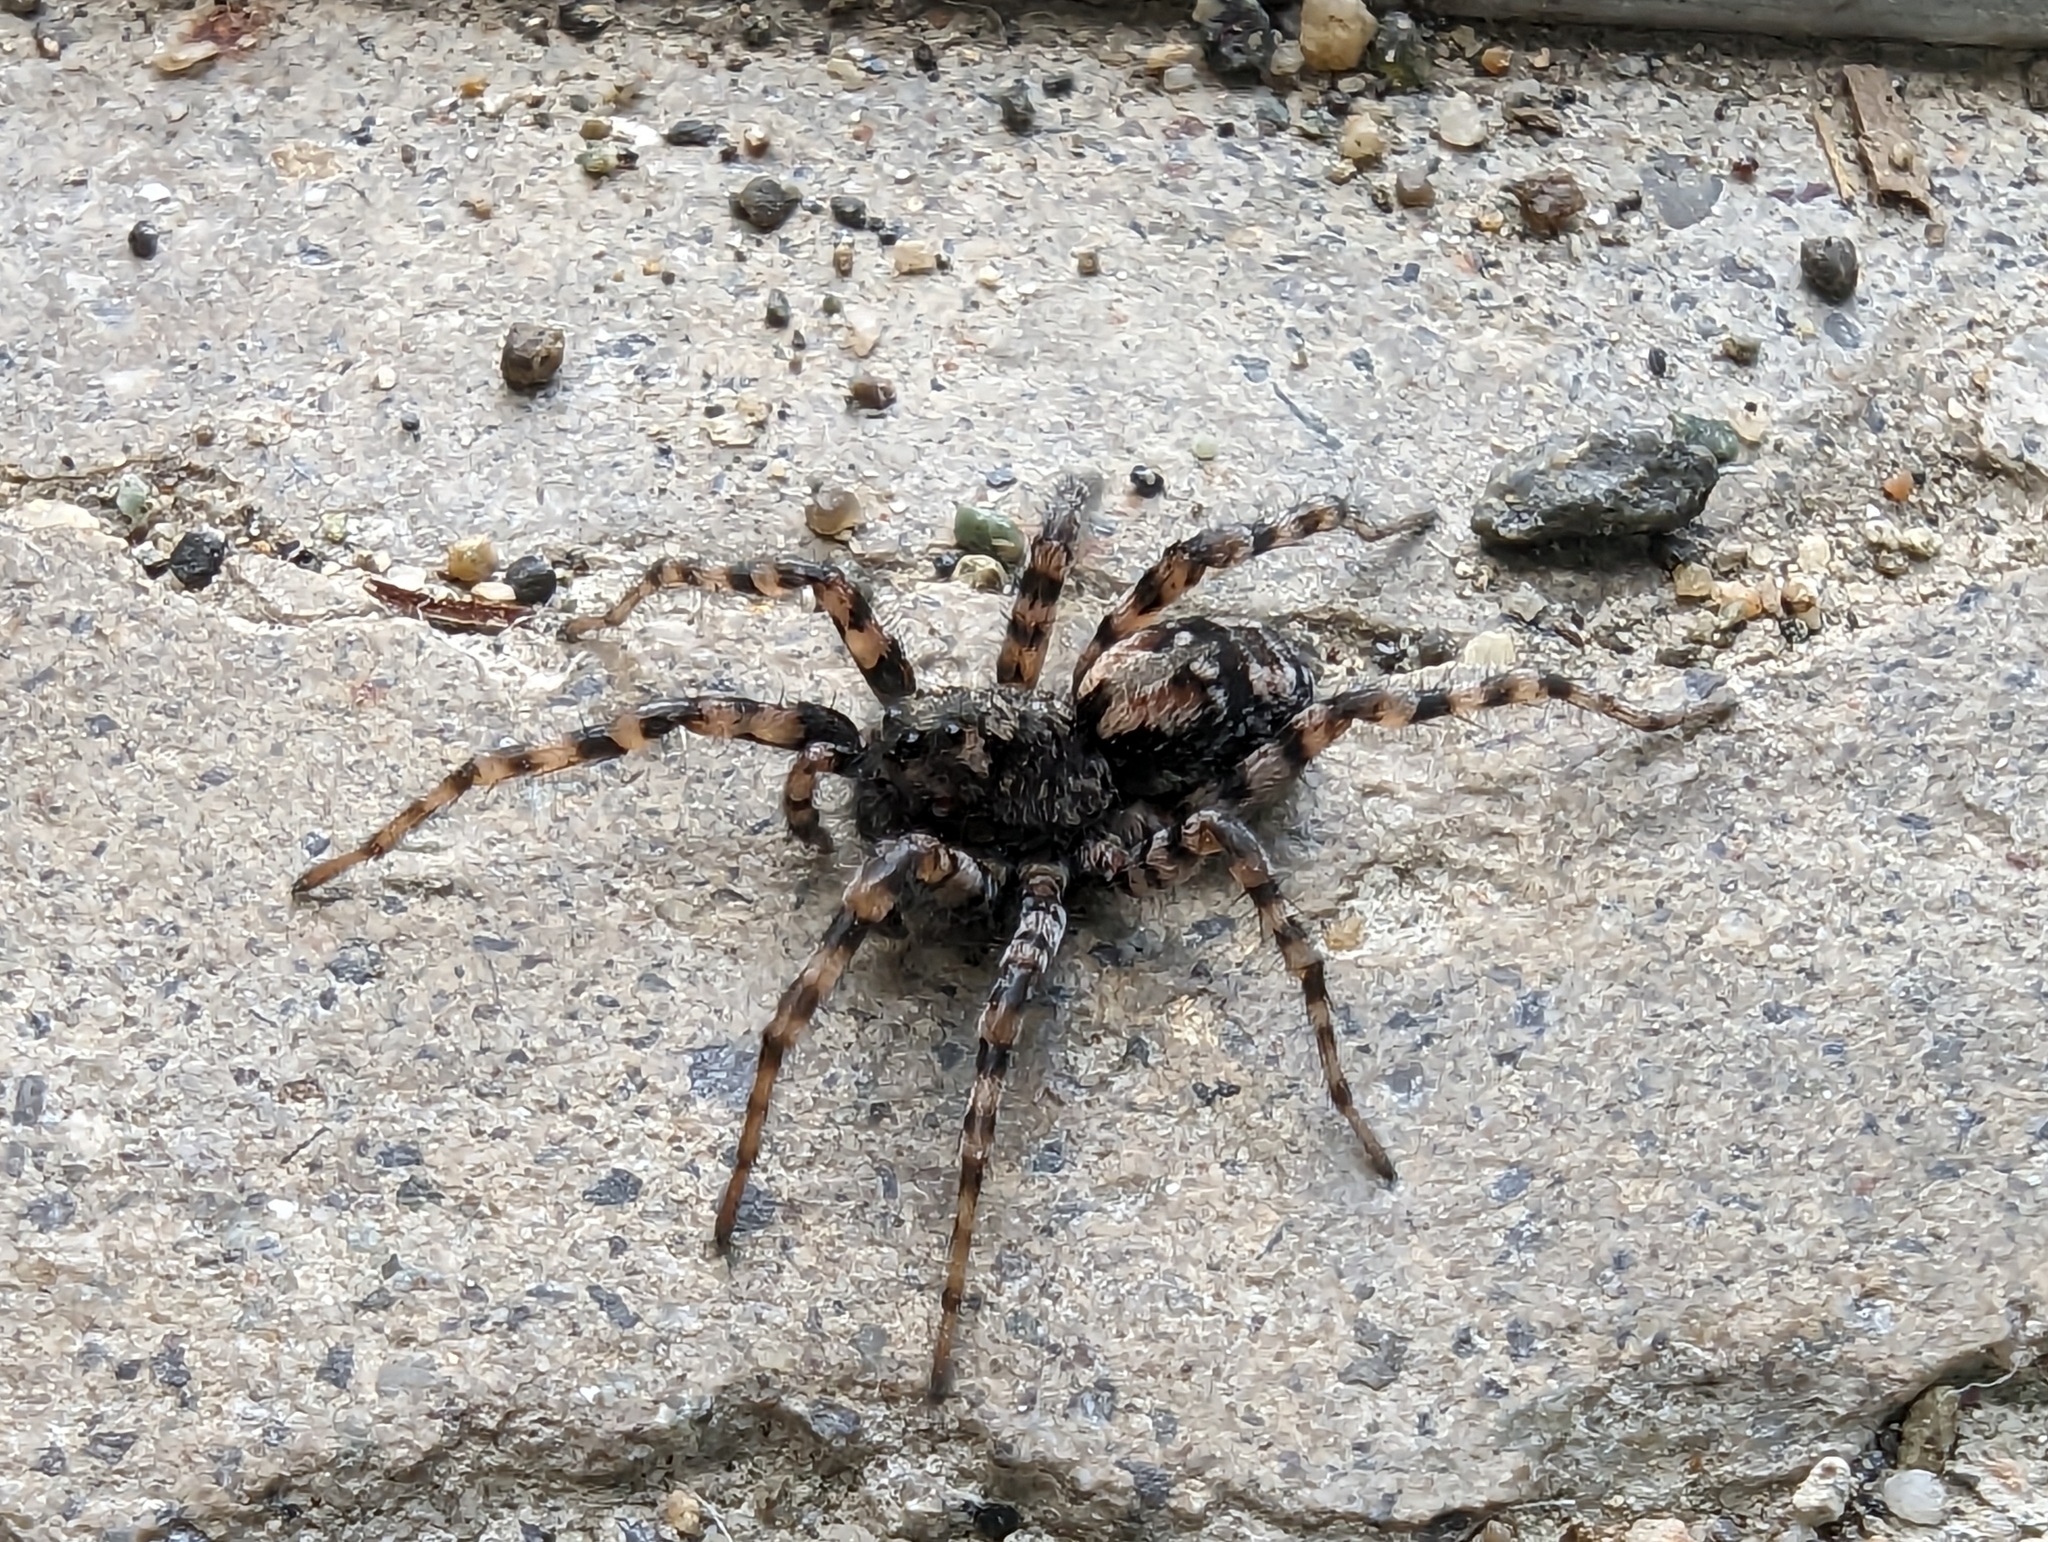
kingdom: Animalia
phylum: Arthropoda
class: Arachnida
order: Araneae
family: Lycosidae
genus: Arctosa
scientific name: Arctosa perita
